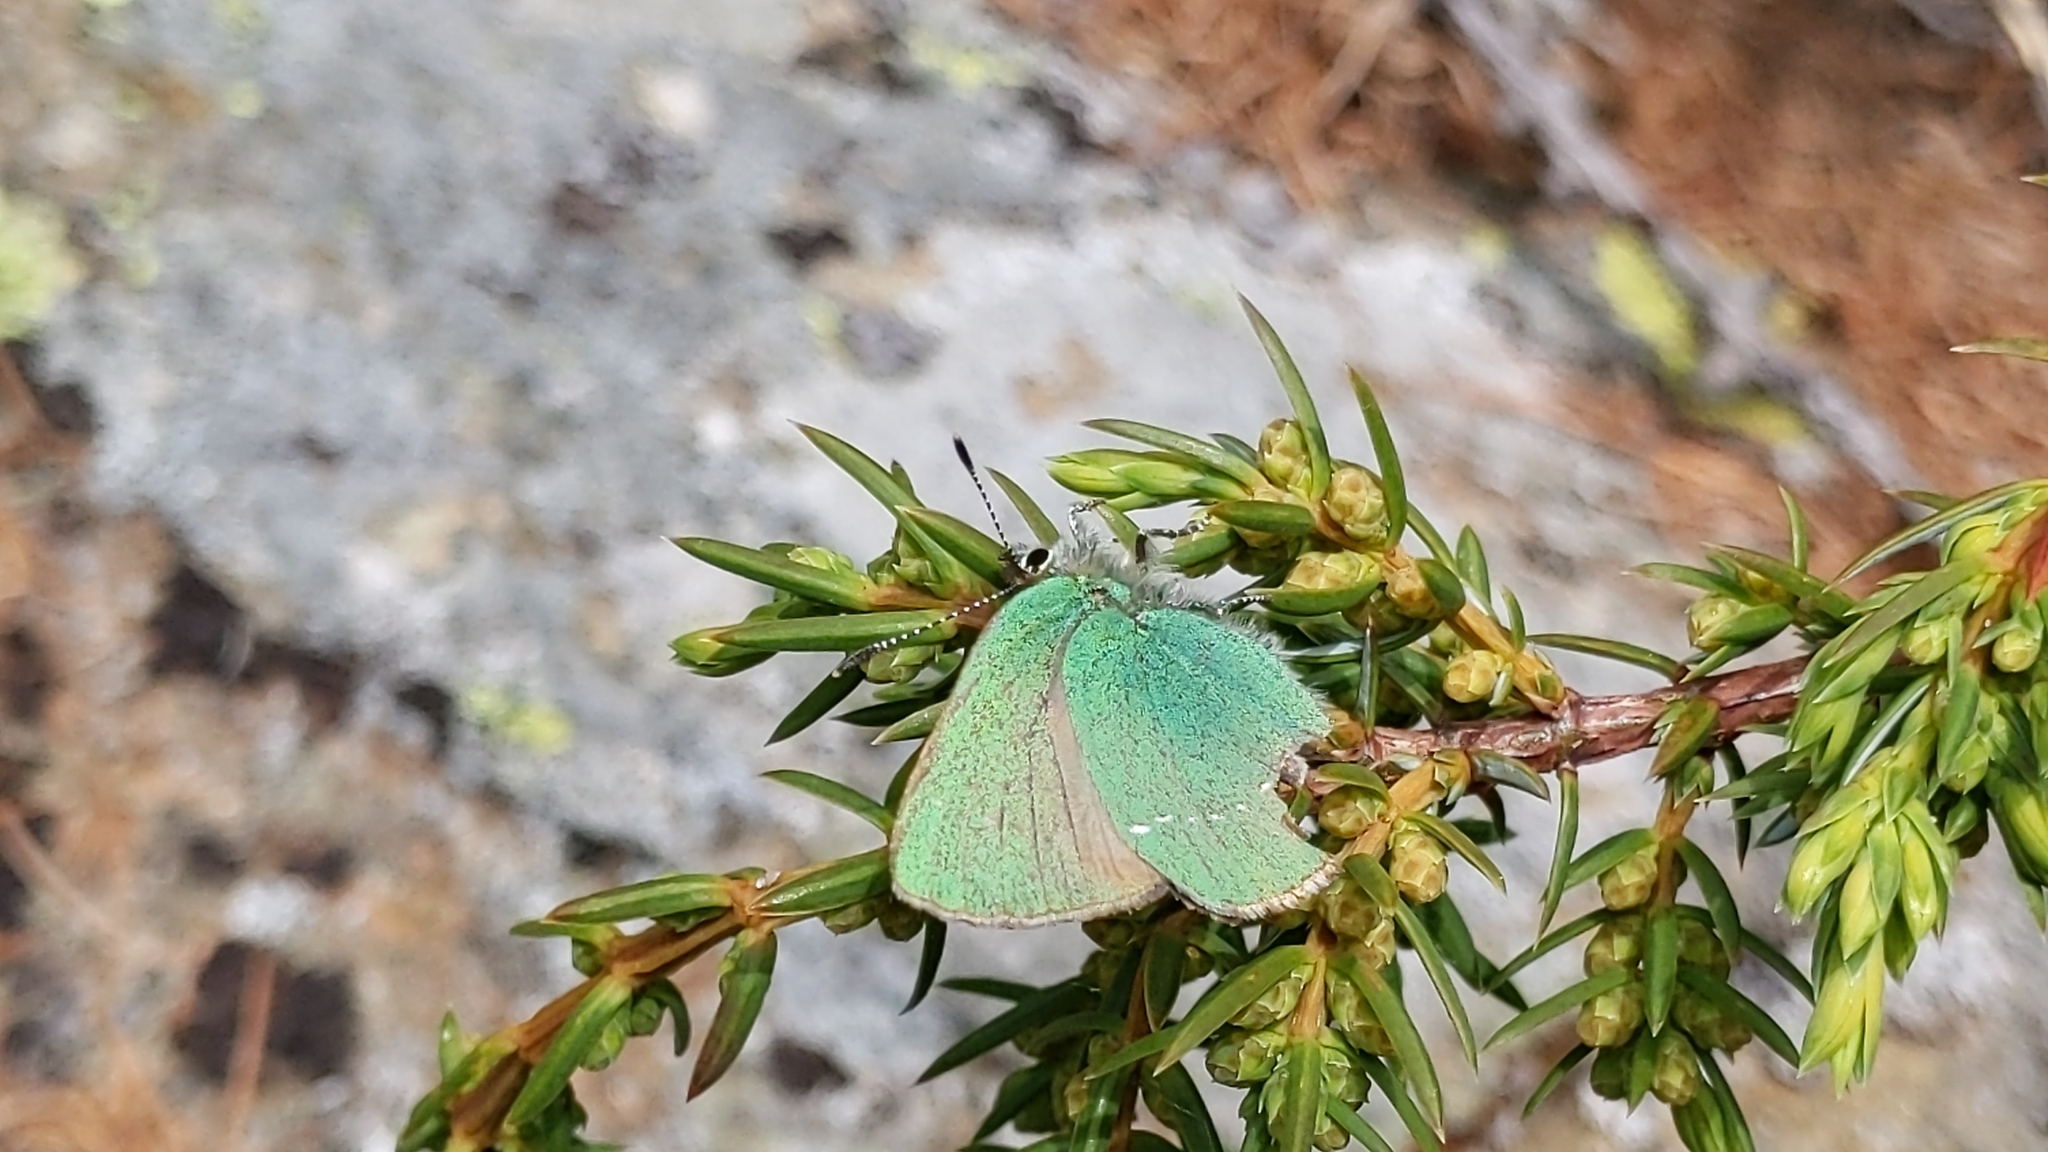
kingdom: Animalia
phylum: Arthropoda
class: Insecta
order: Lepidoptera
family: Lycaenidae
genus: Callophrys
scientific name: Callophrys rubi
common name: Green hairstreak
